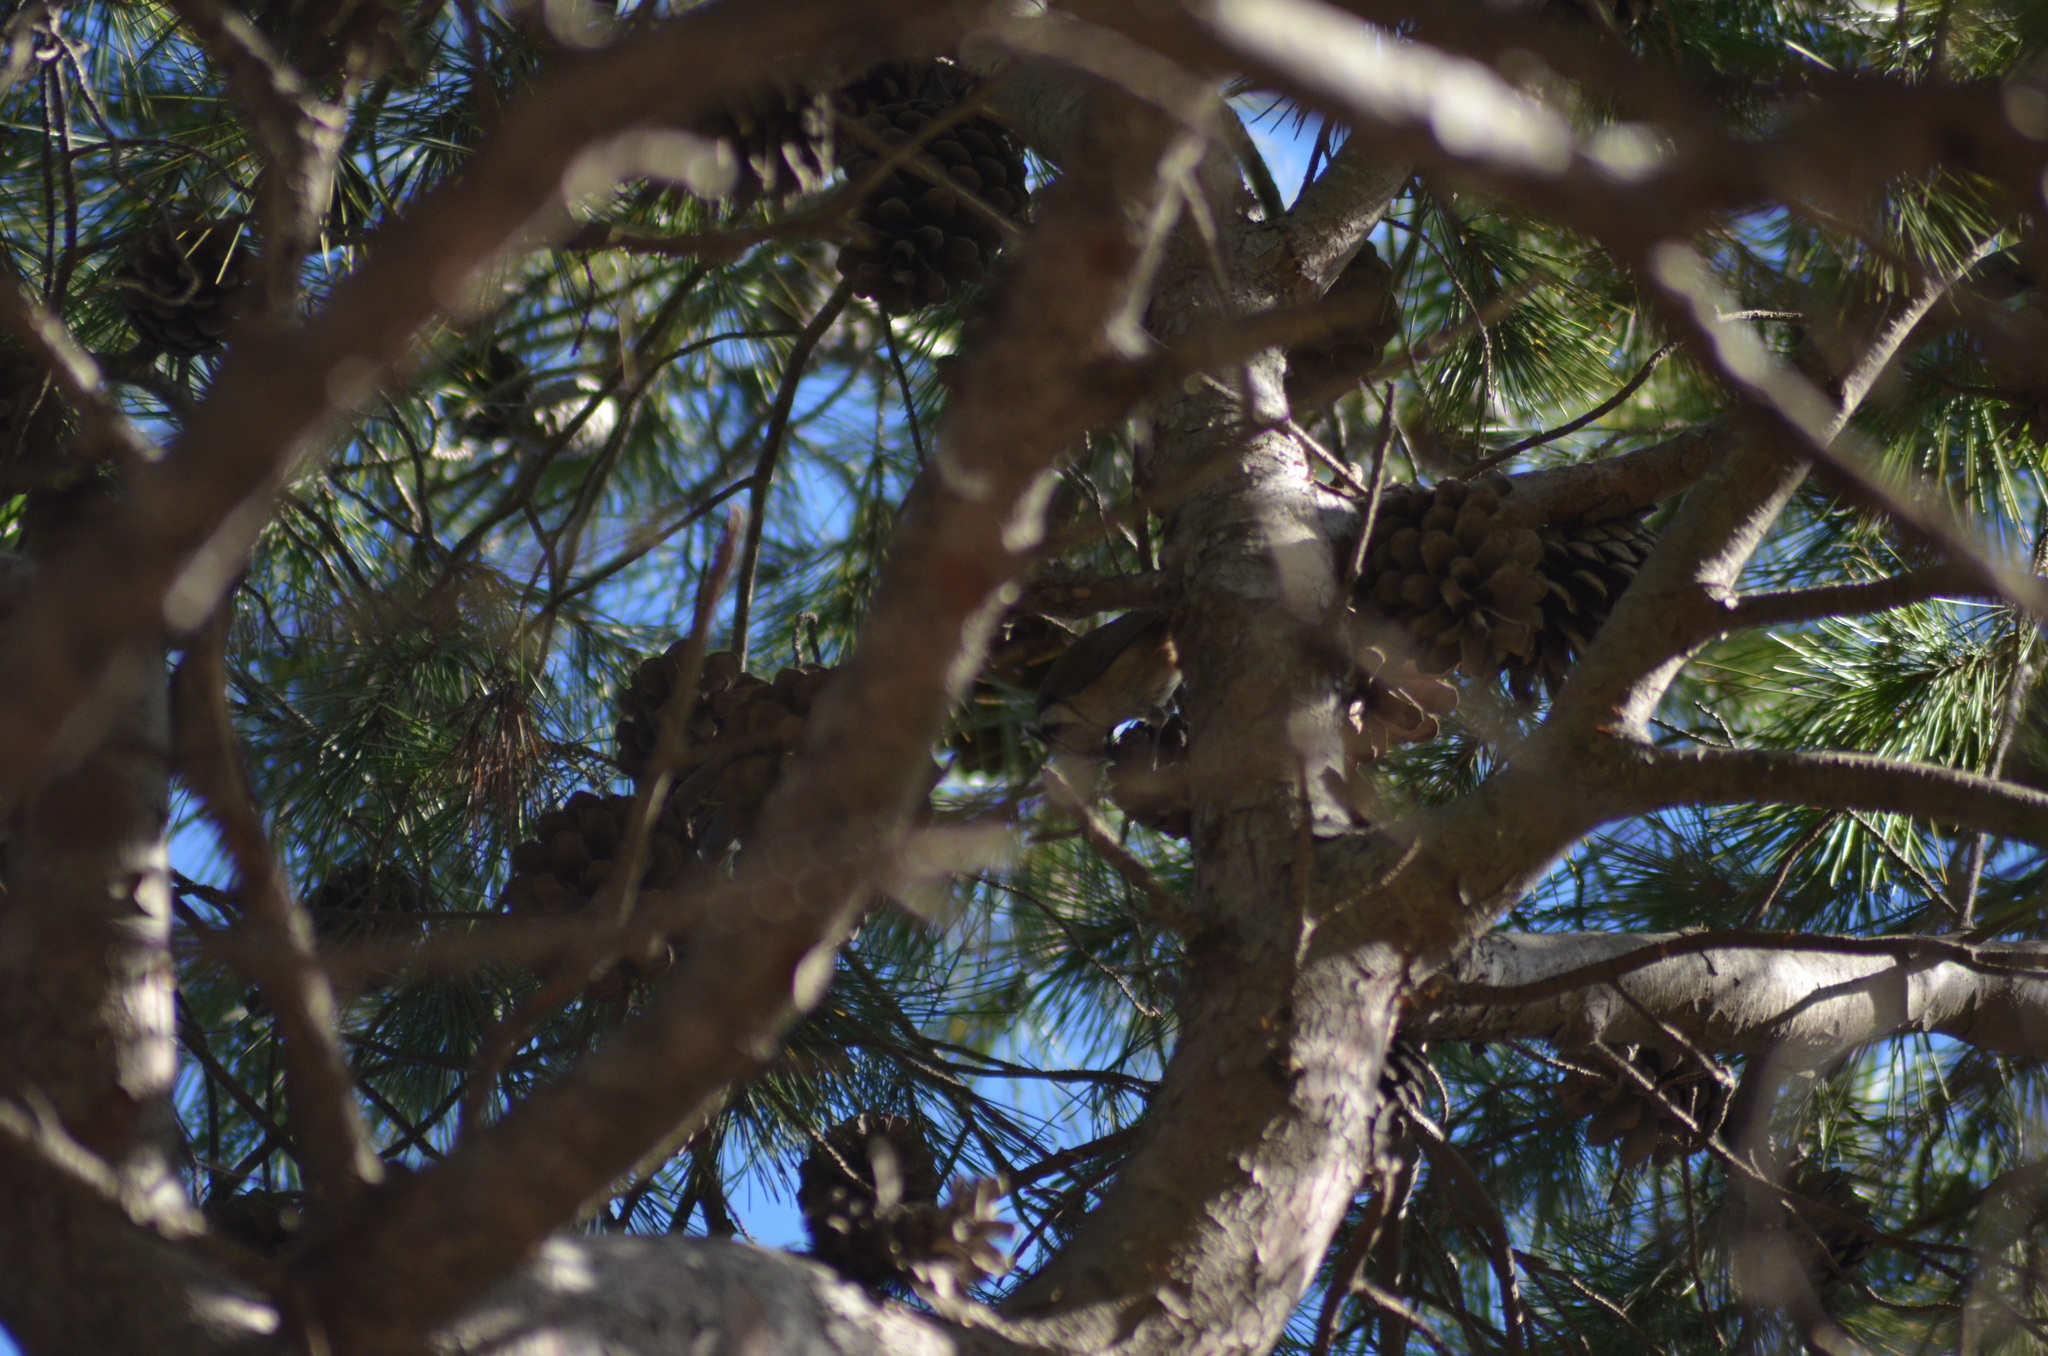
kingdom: Animalia
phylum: Chordata
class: Aves
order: Passeriformes
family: Paridae
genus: Lophophanes
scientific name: Lophophanes cristatus
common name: European crested tit
